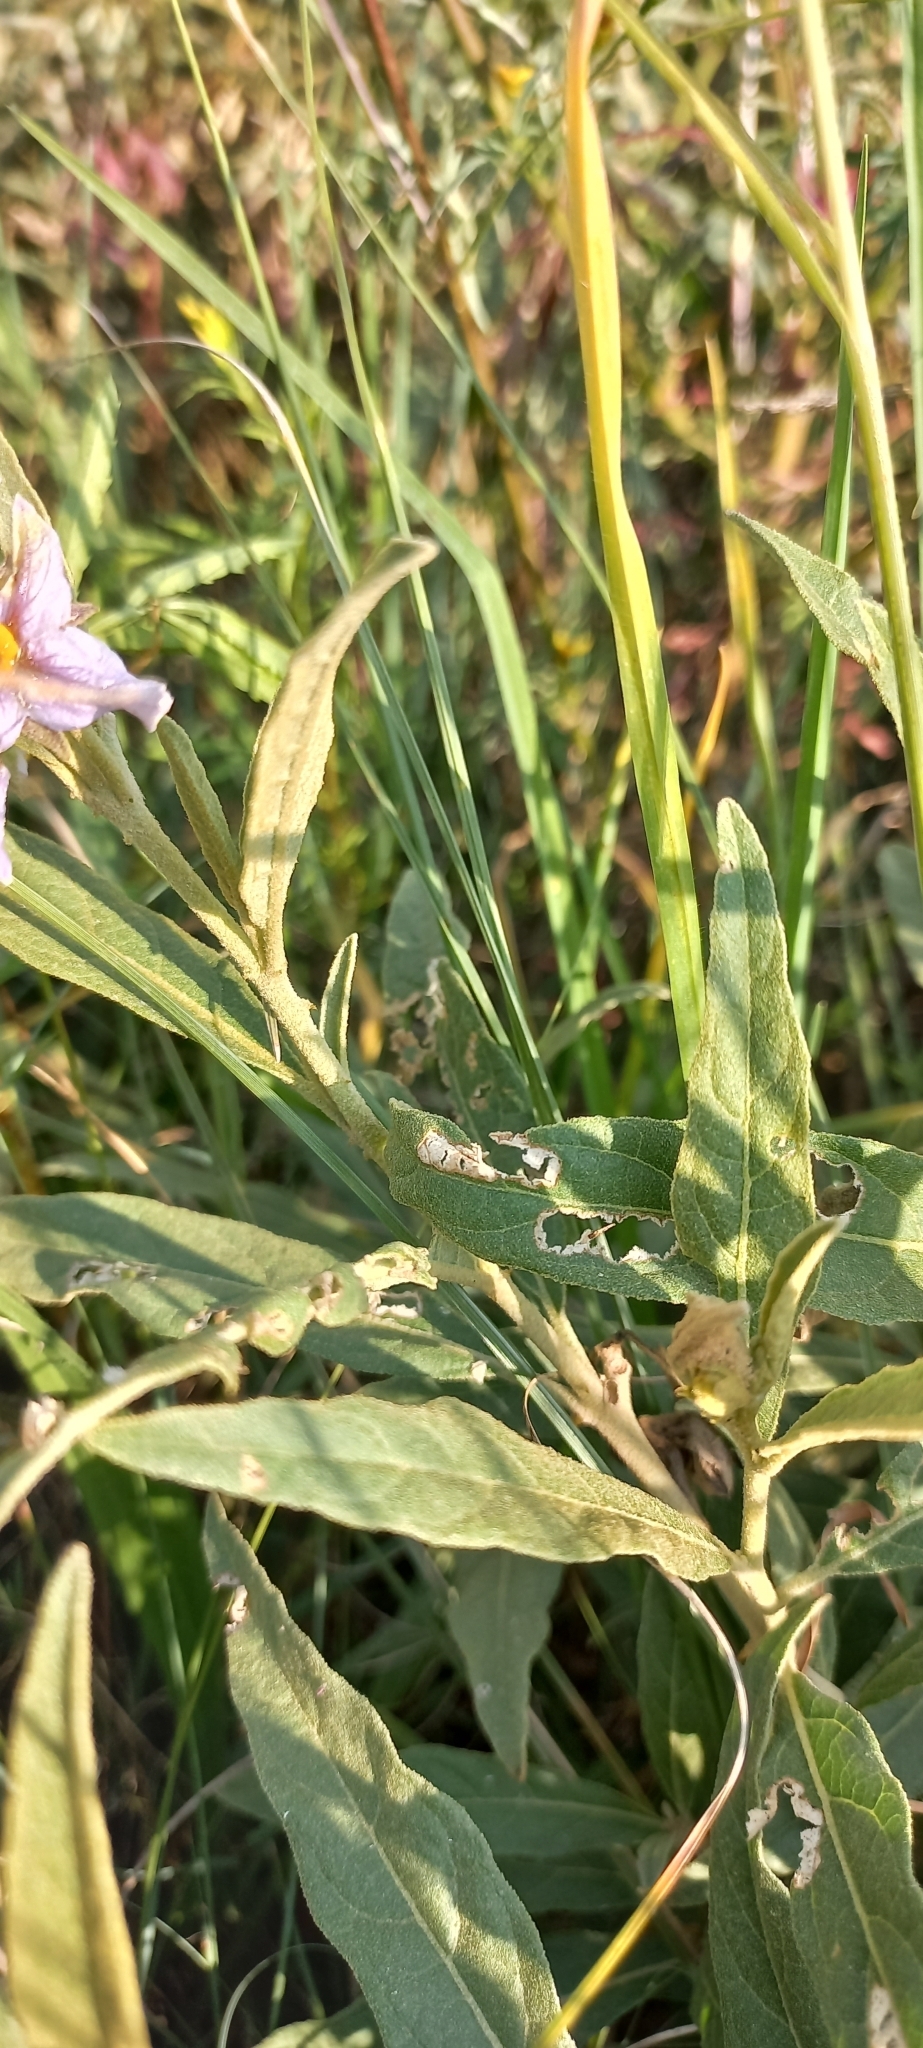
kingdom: Plantae
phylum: Tracheophyta
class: Magnoliopsida
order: Solanales
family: Solanaceae
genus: Solanum
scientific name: Solanum campylacanthum
